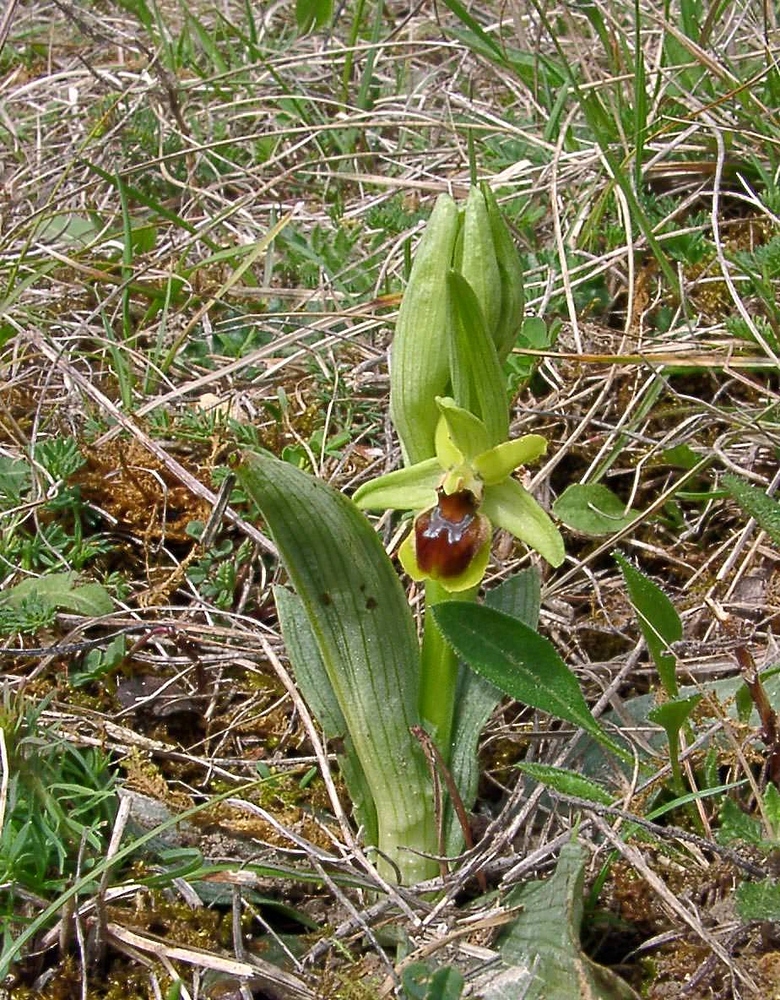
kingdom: Plantae
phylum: Tracheophyta
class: Liliopsida
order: Asparagales
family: Orchidaceae
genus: Ophrys
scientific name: Ophrys araneola
